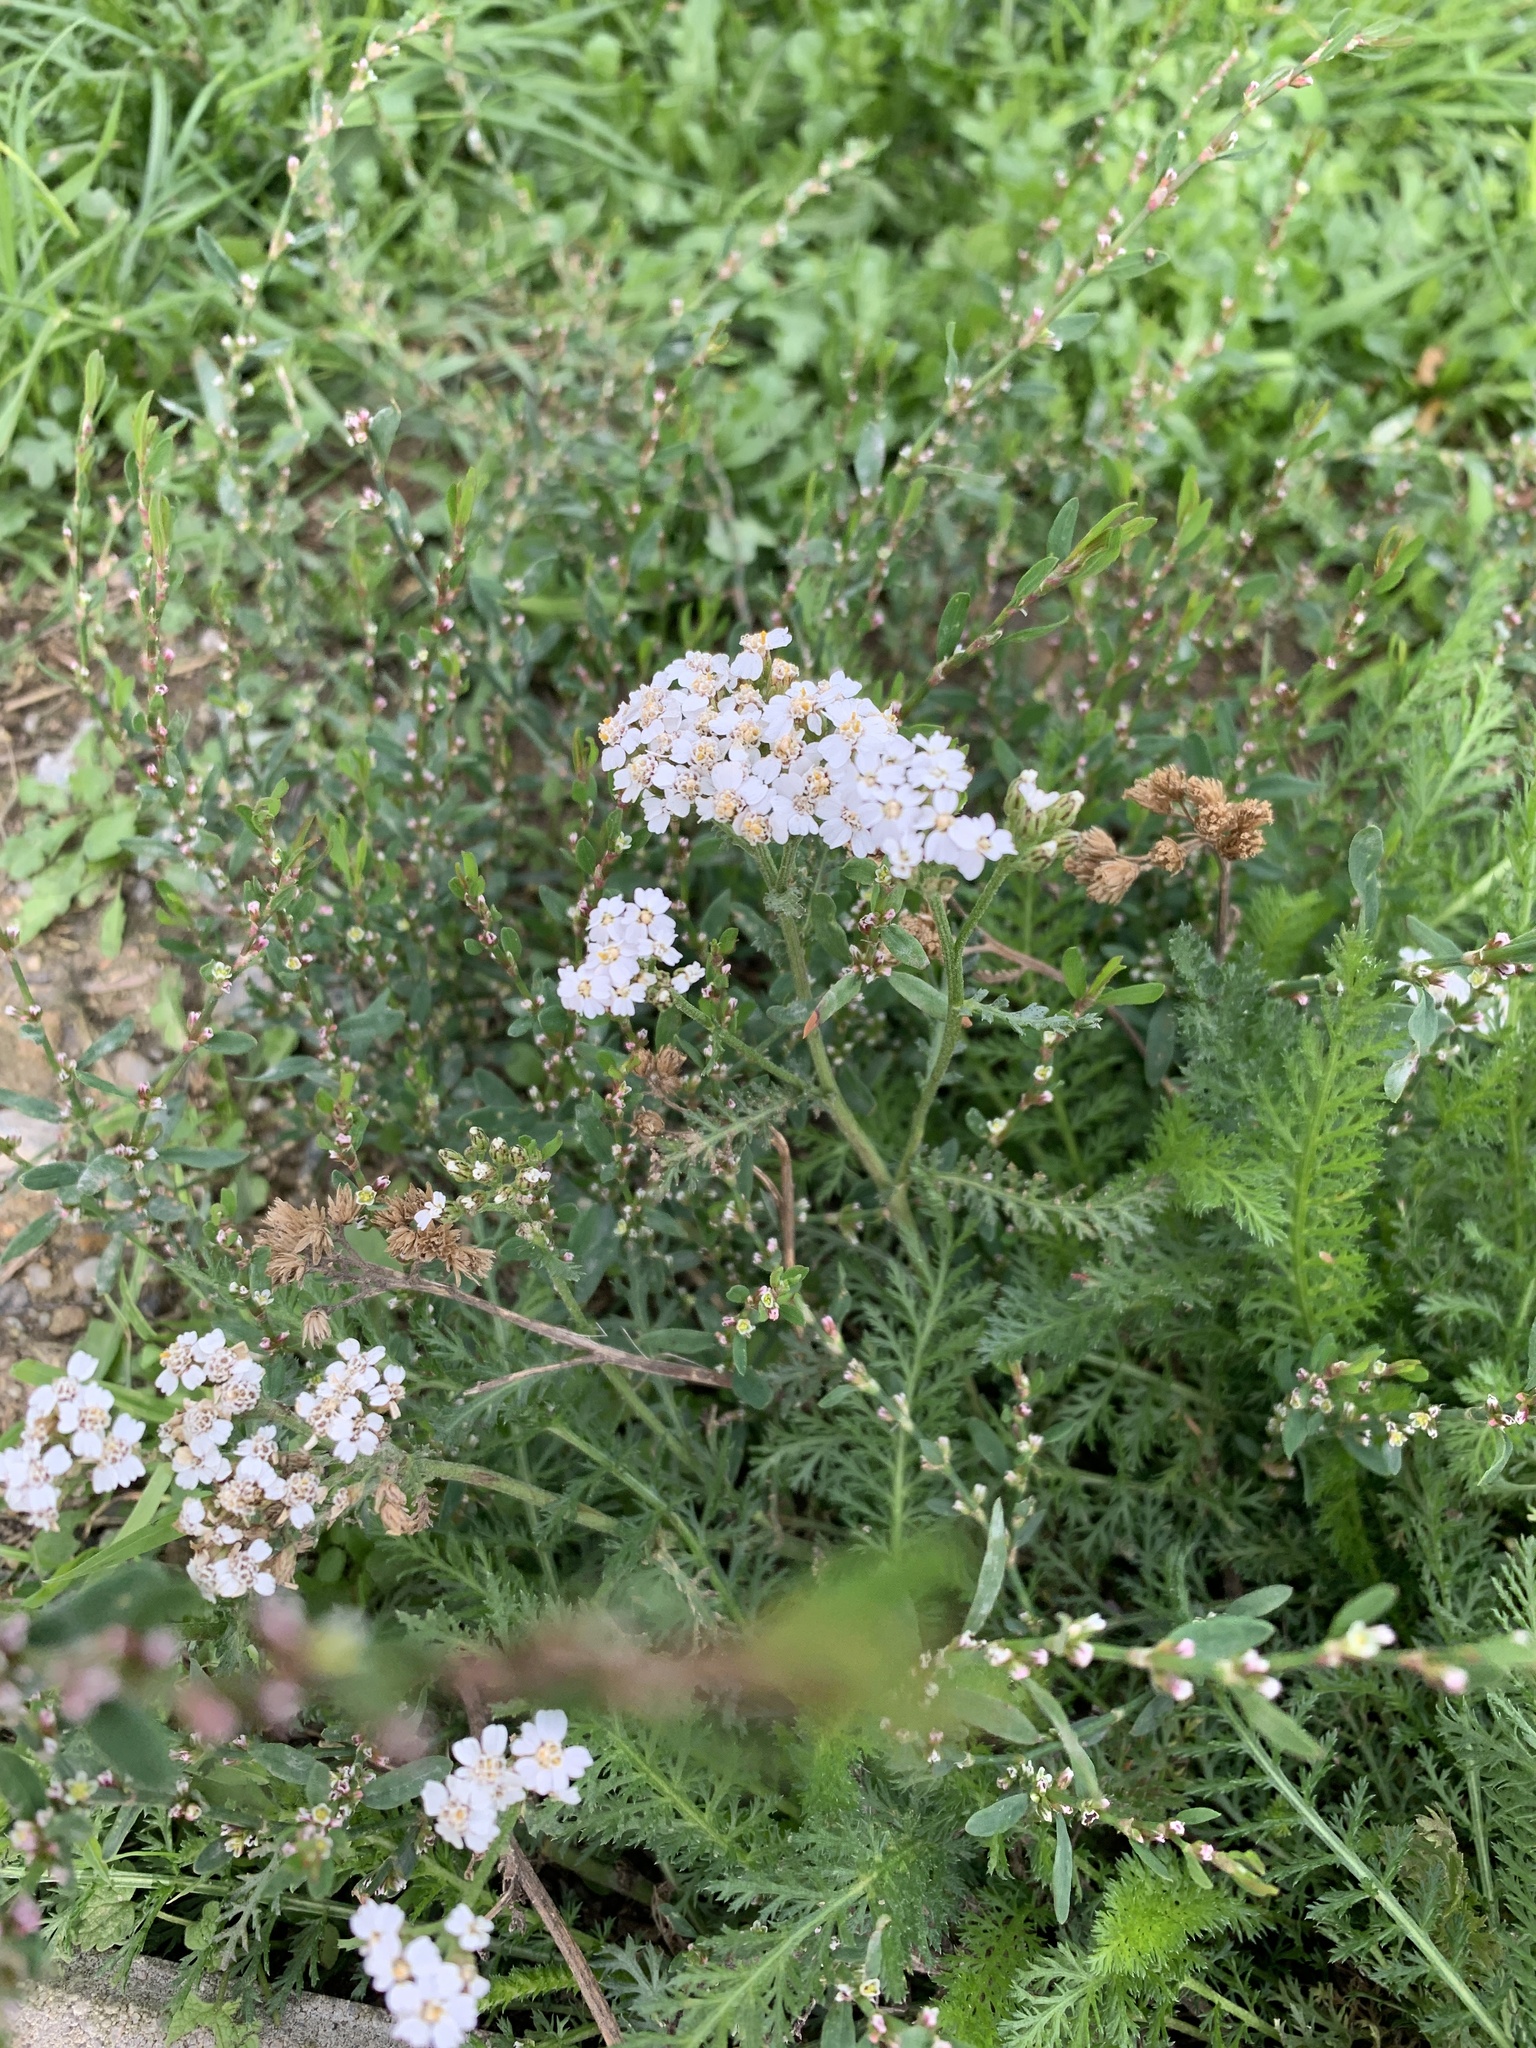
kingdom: Plantae
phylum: Tracheophyta
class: Magnoliopsida
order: Asterales
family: Asteraceae
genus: Achillea
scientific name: Achillea millefolium
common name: Yarrow
